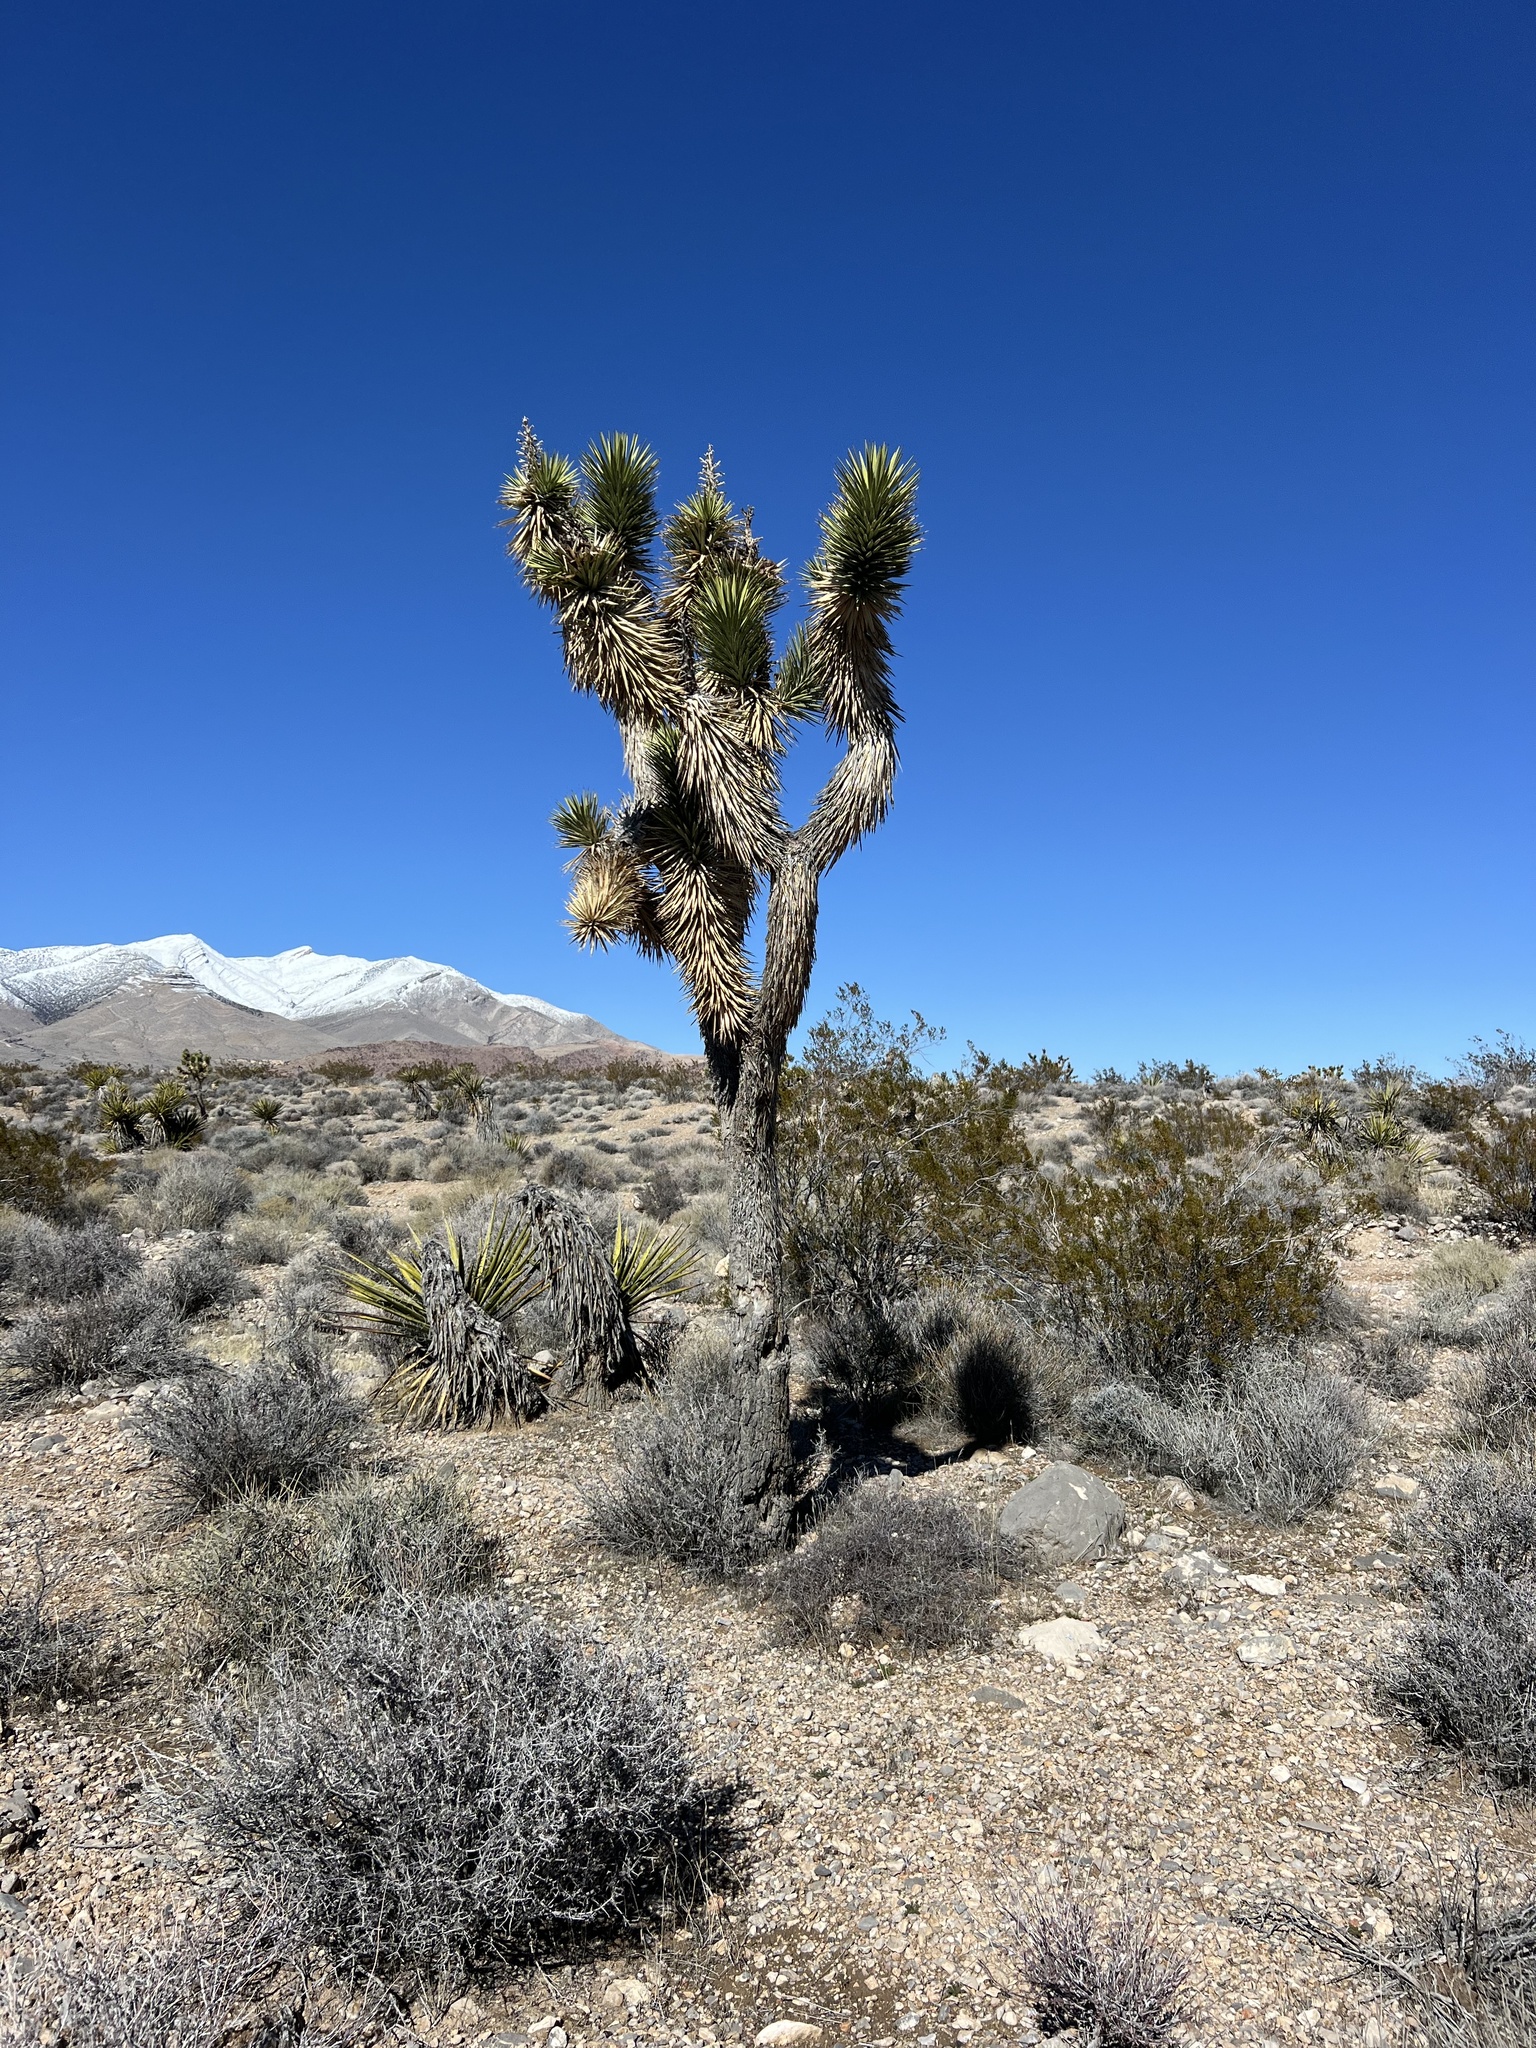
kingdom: Plantae
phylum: Tracheophyta
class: Liliopsida
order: Asparagales
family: Asparagaceae
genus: Yucca
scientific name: Yucca brevifolia
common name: Joshua tree
